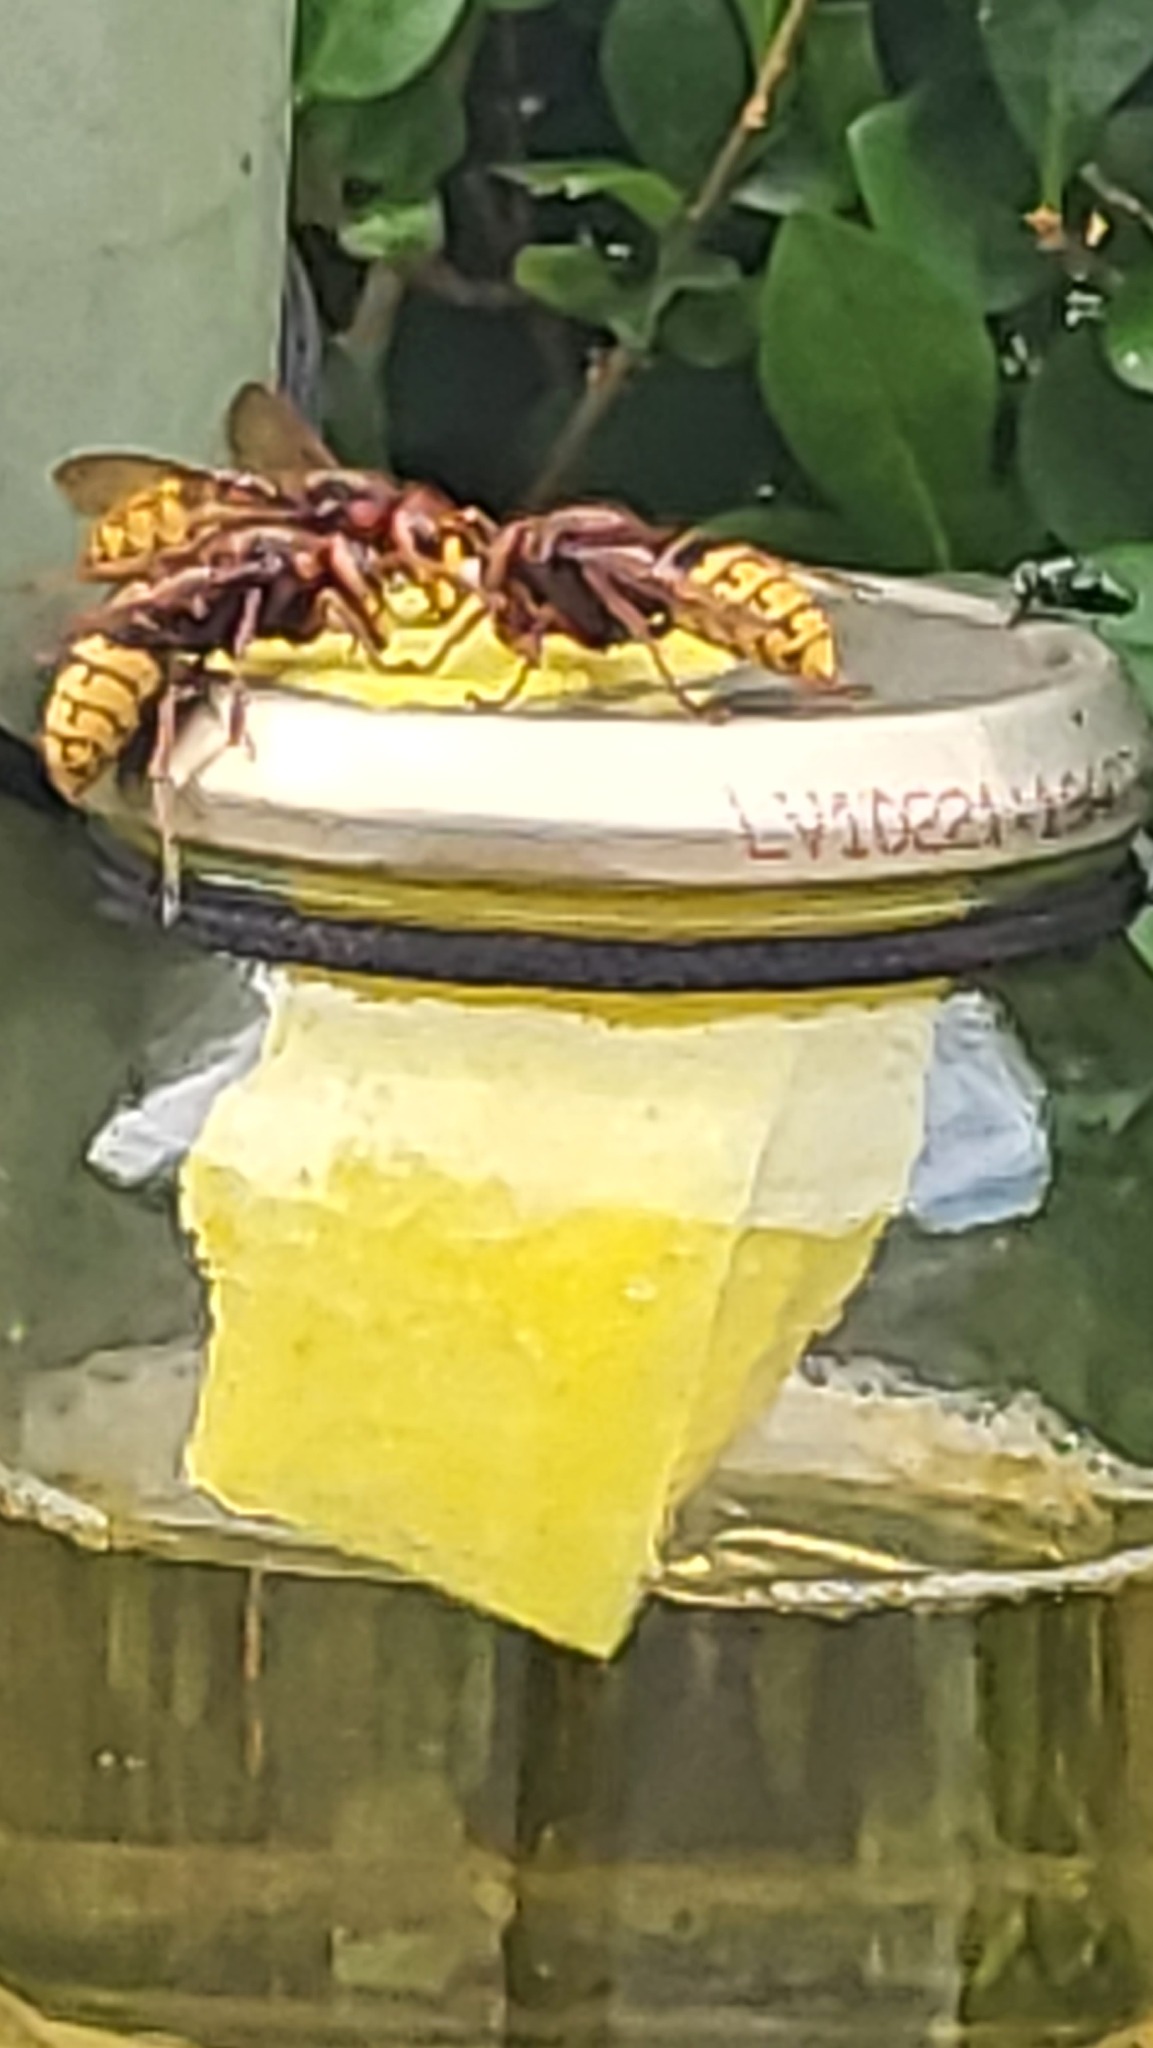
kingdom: Animalia
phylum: Arthropoda
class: Insecta
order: Hymenoptera
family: Vespidae
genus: Vespa
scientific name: Vespa crabro
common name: Hornet
